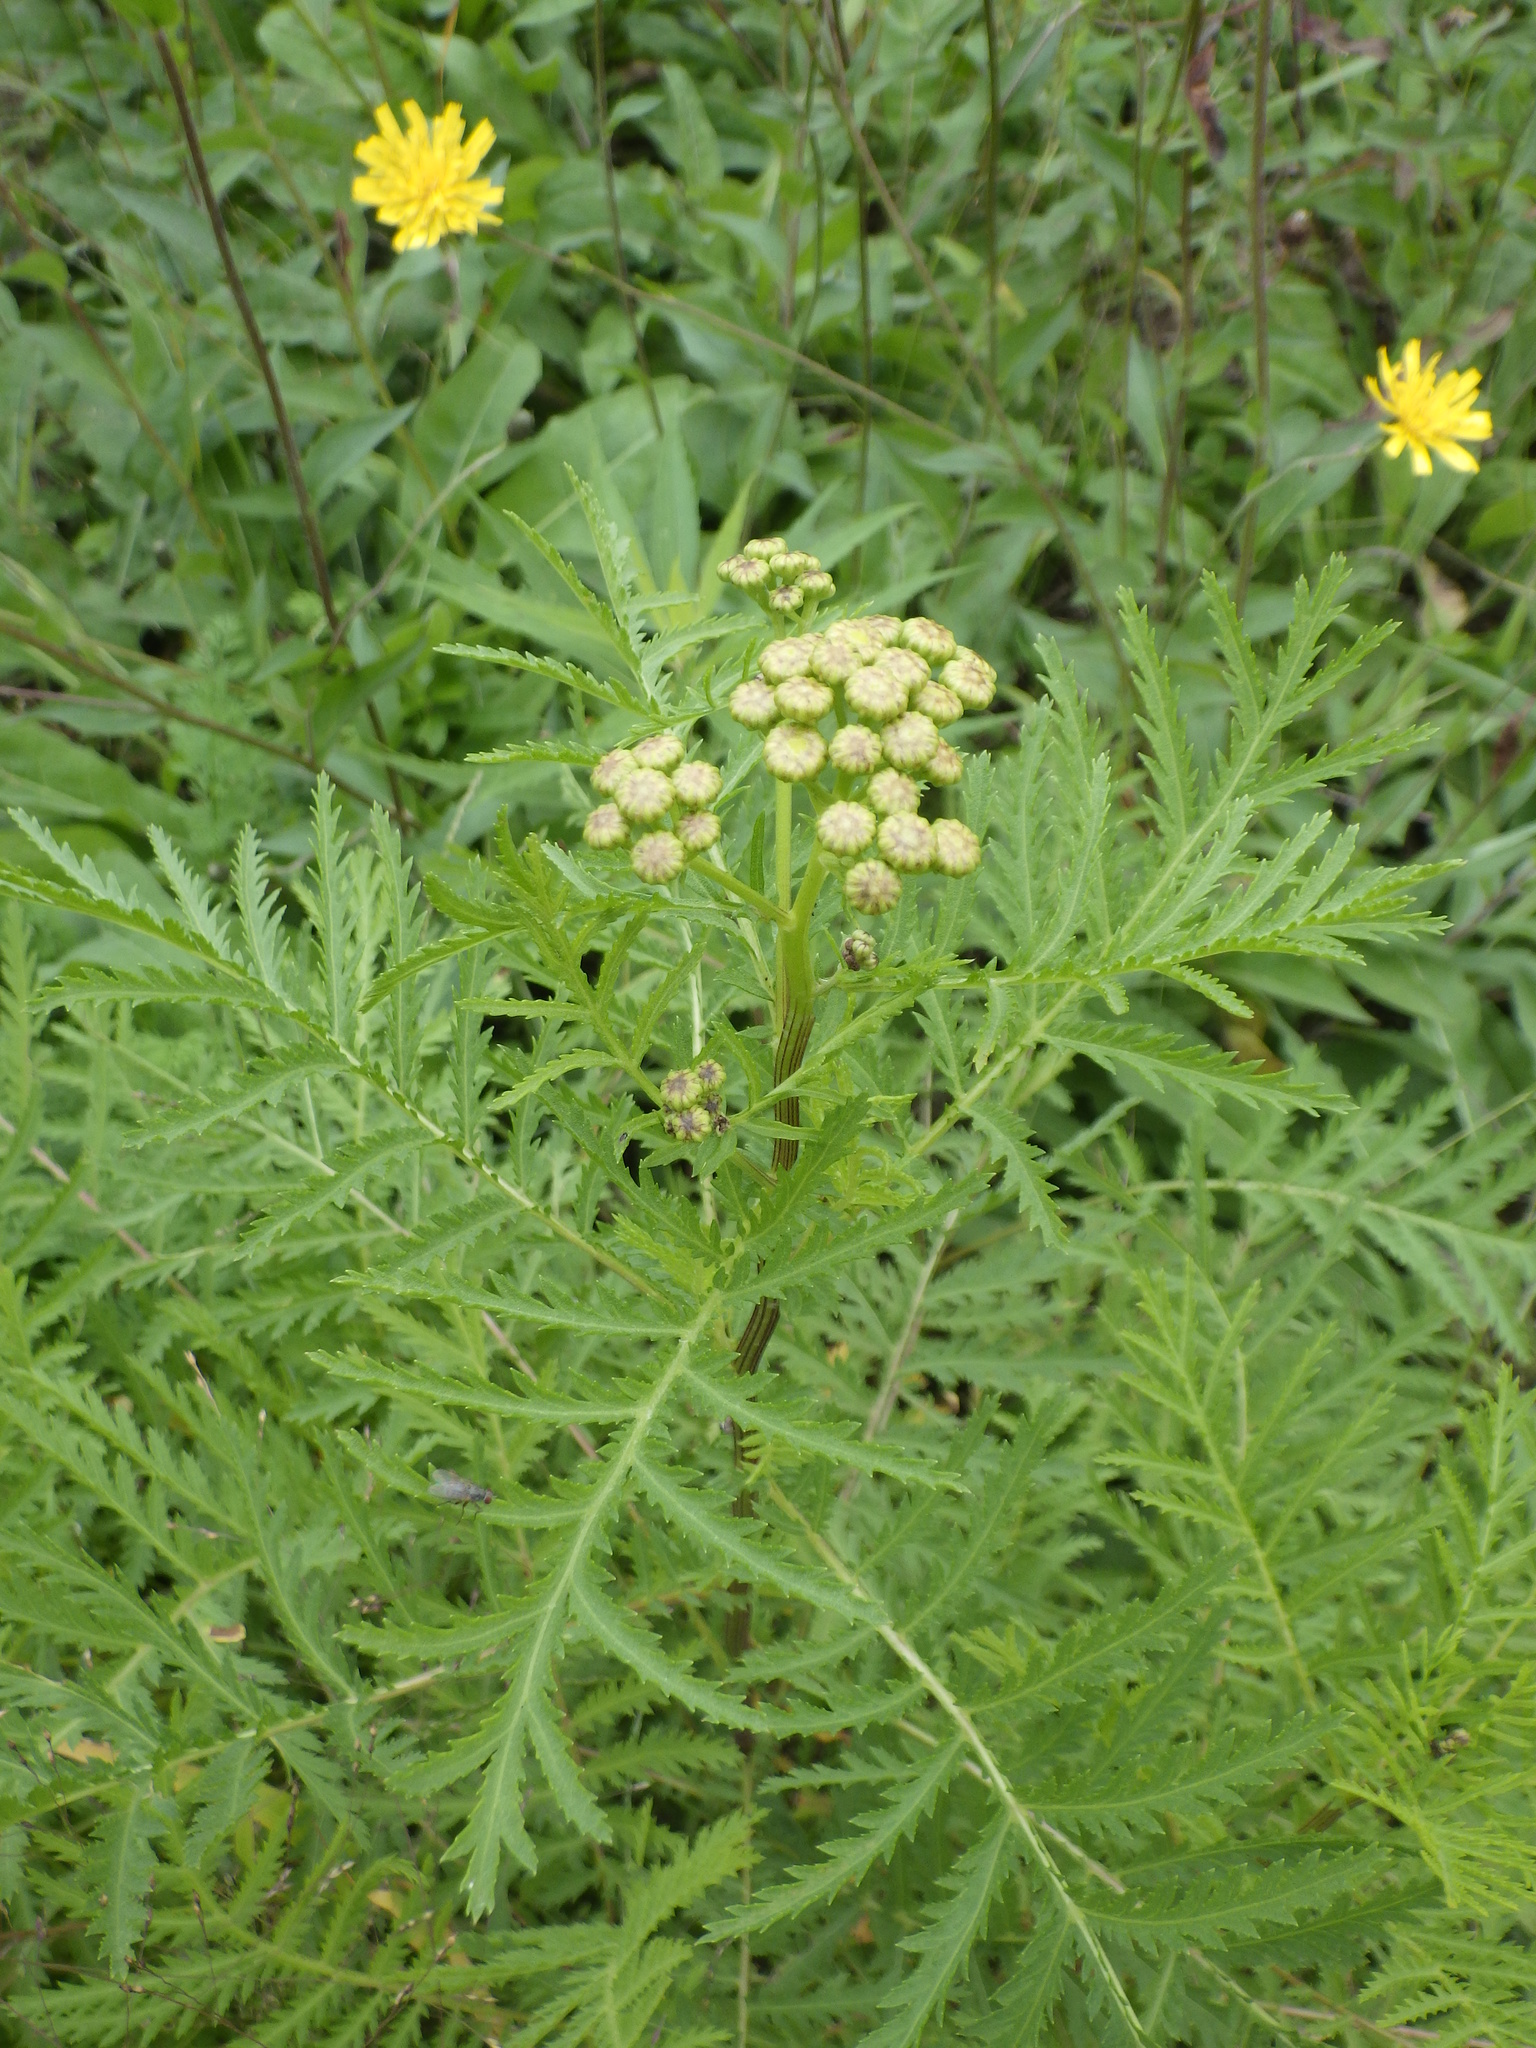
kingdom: Plantae
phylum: Tracheophyta
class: Magnoliopsida
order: Asterales
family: Asteraceae
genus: Tanacetum
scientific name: Tanacetum vulgare
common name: Common tansy
